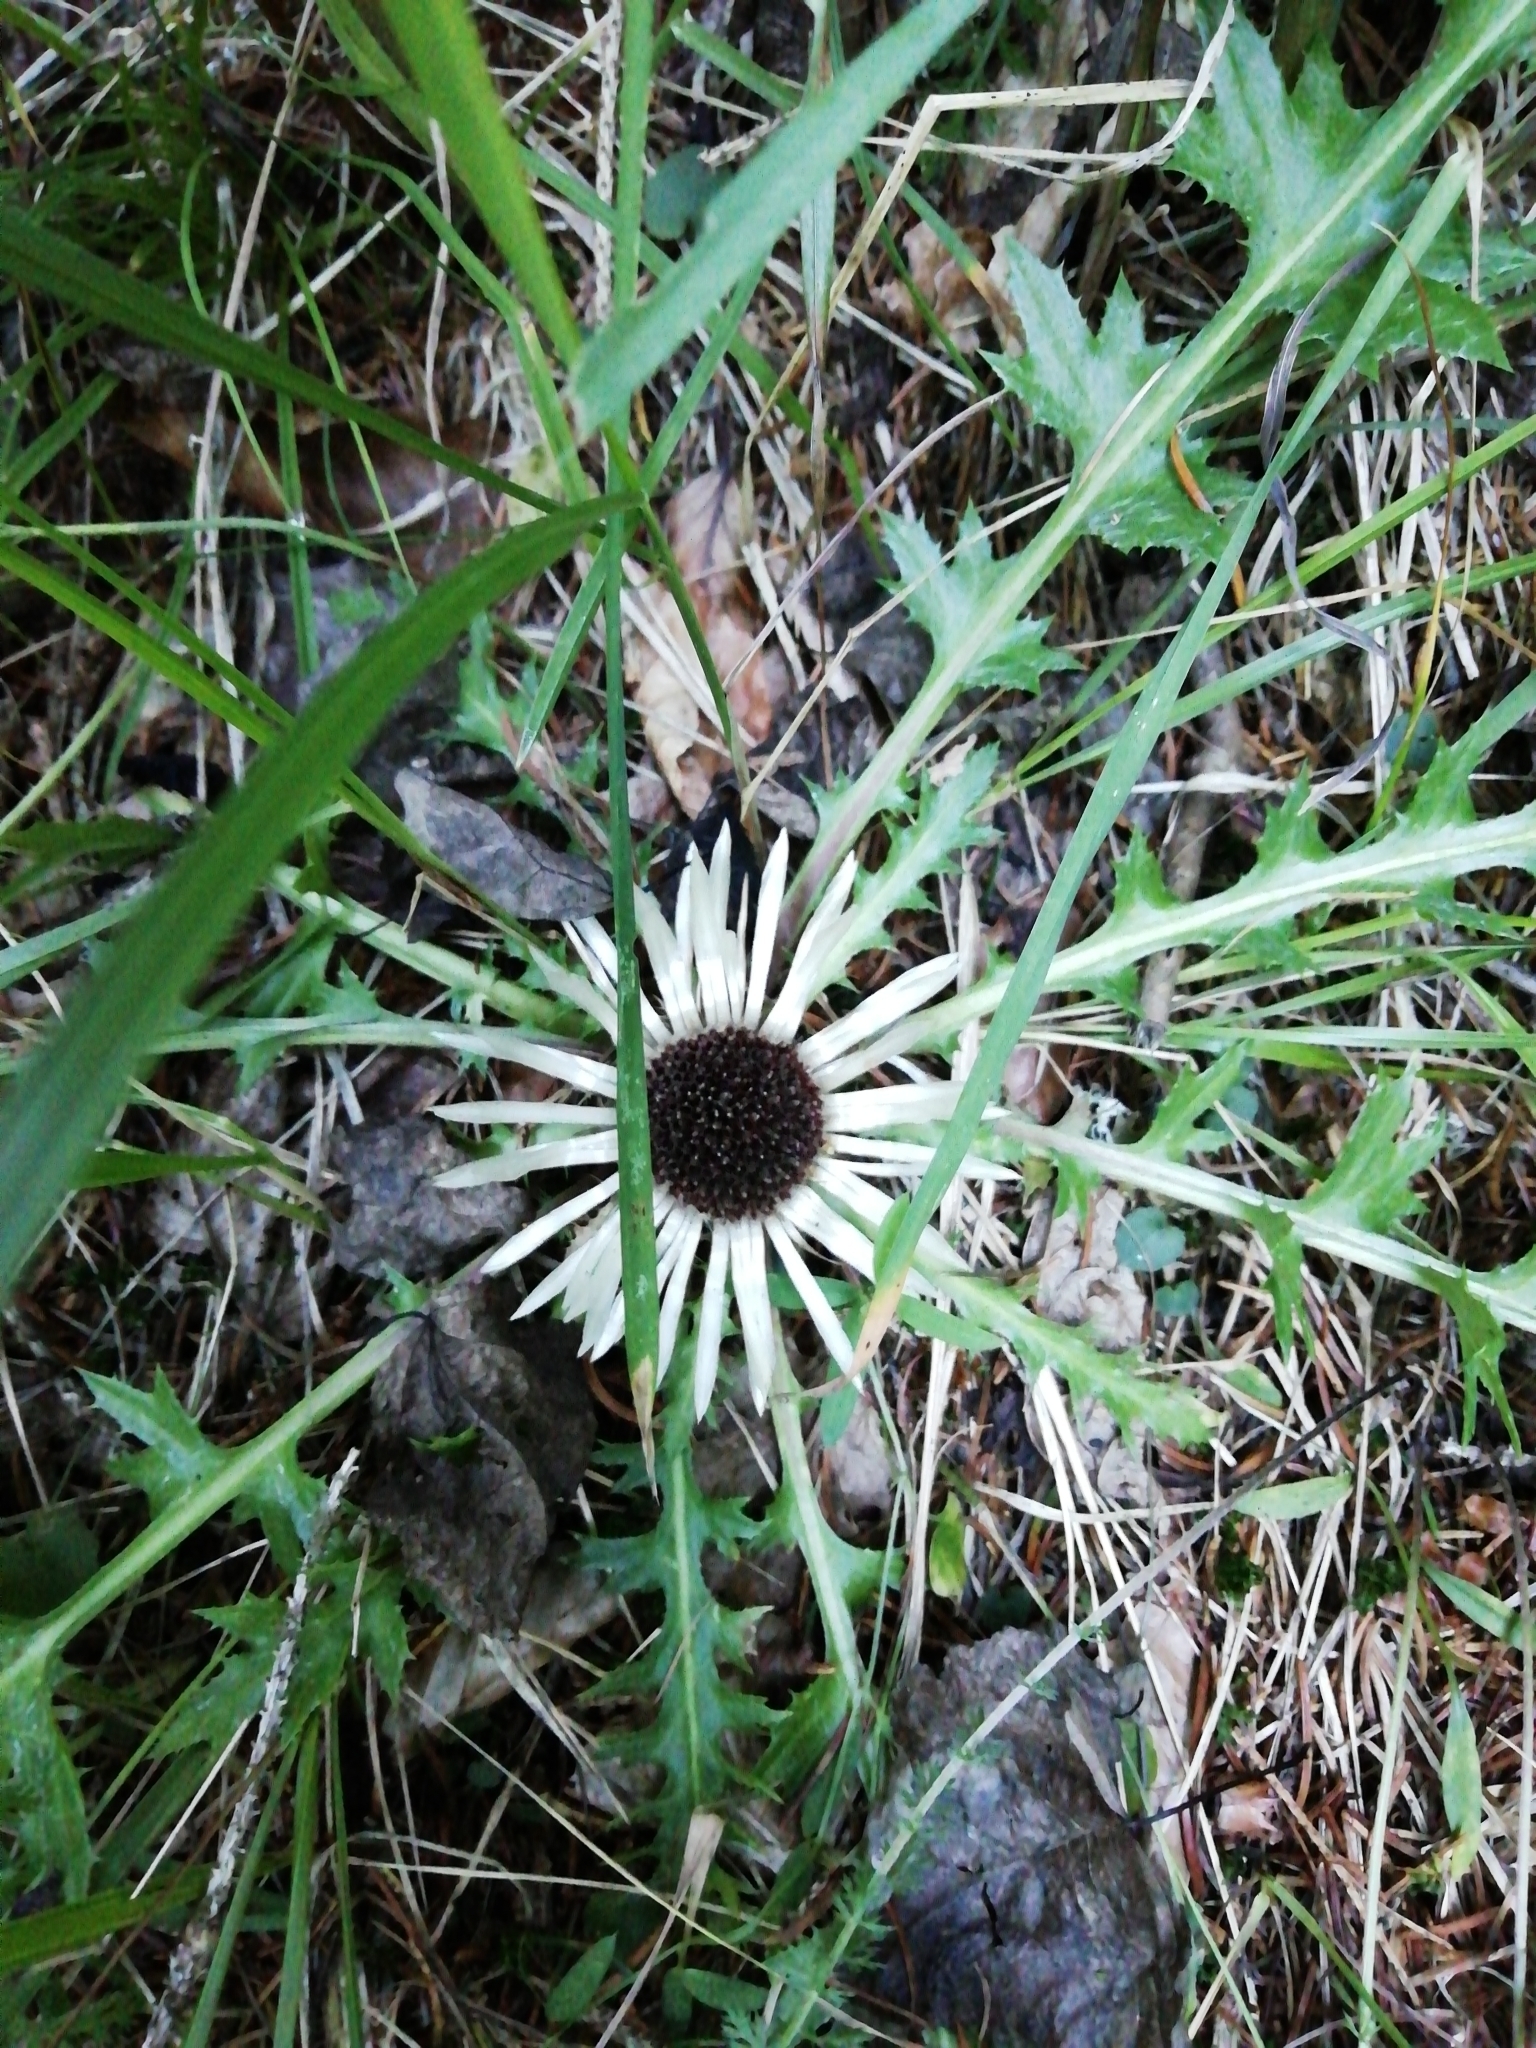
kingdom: Plantae
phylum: Tracheophyta
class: Magnoliopsida
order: Asterales
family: Asteraceae
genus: Carlina
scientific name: Carlina acaulis
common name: Stemless carline thistle
